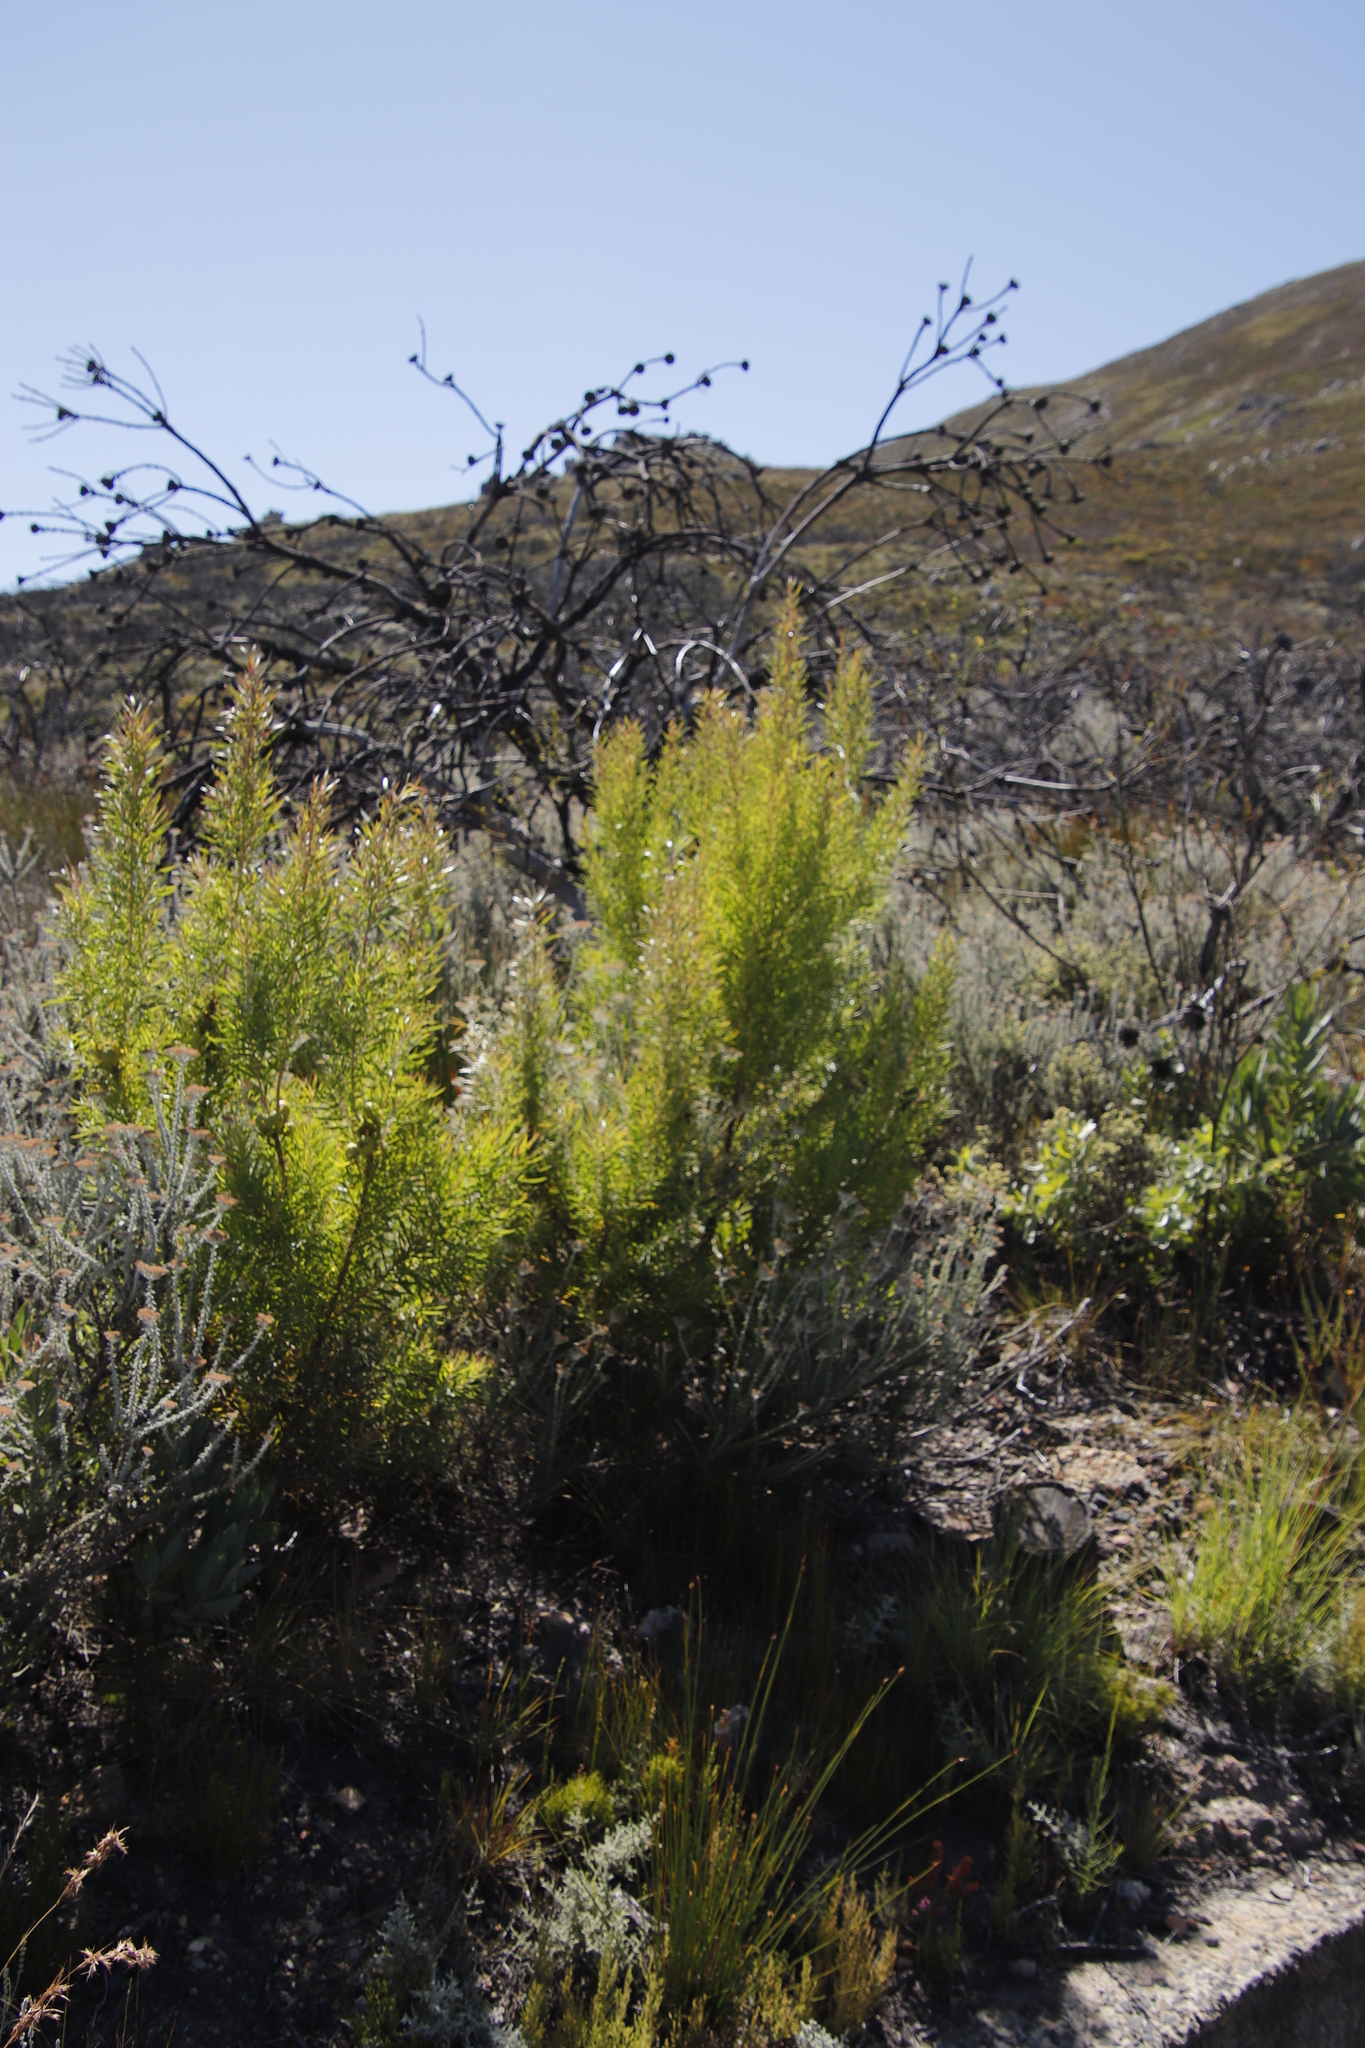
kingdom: Plantae
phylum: Tracheophyta
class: Magnoliopsida
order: Proteales
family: Proteaceae
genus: Leucadendron
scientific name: Leucadendron salicifolium
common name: Common stream conebush
